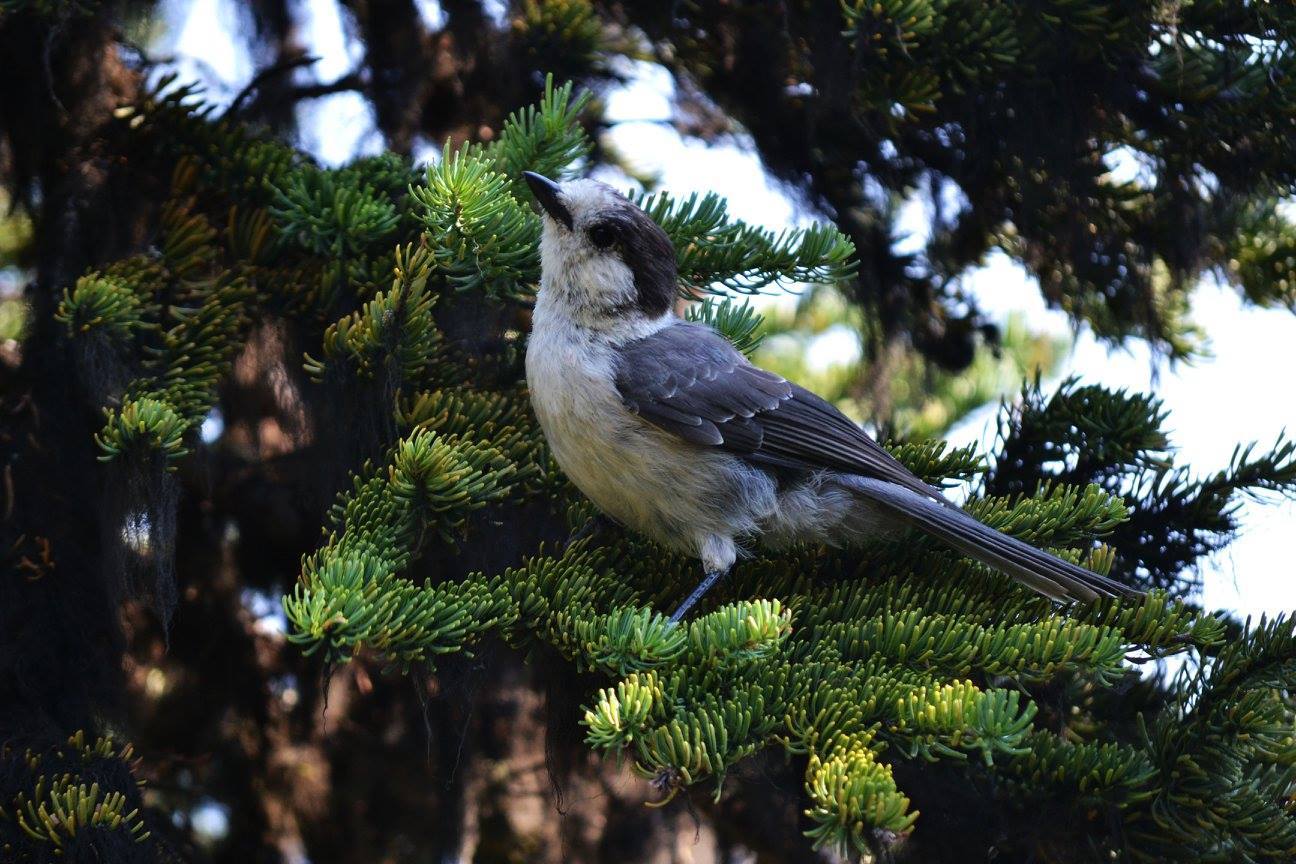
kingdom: Animalia
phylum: Chordata
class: Aves
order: Passeriformes
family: Corvidae
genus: Perisoreus
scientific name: Perisoreus canadensis
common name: Gray jay
